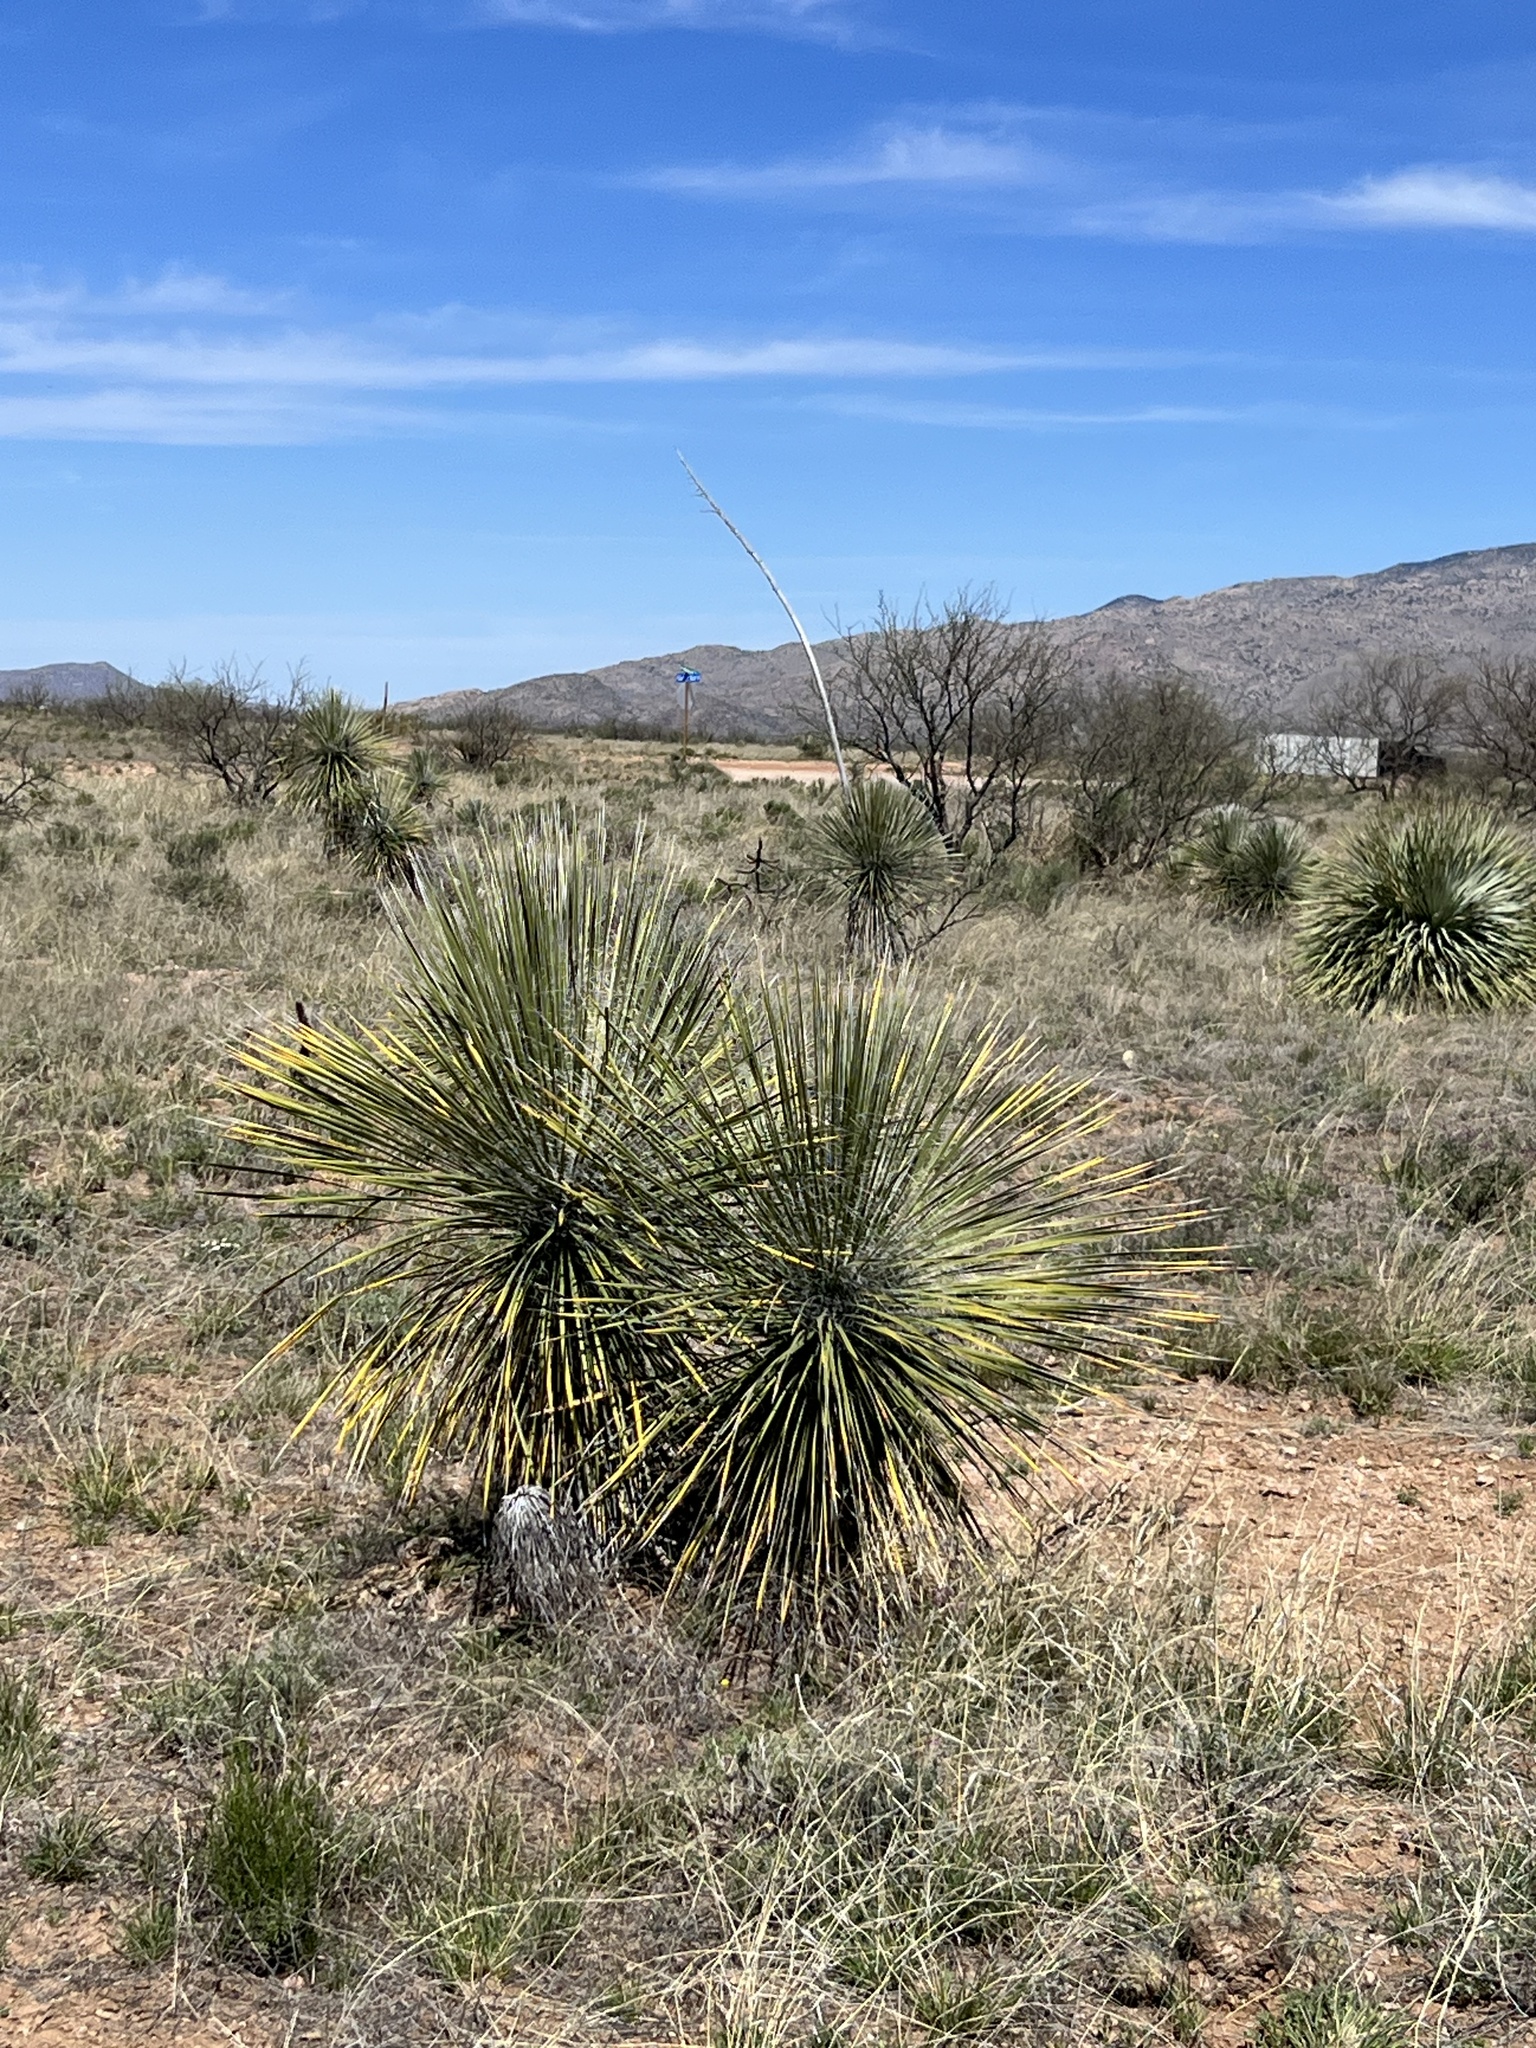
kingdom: Plantae
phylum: Tracheophyta
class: Liliopsida
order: Asparagales
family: Asparagaceae
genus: Yucca
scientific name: Yucca elata
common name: Palmella
